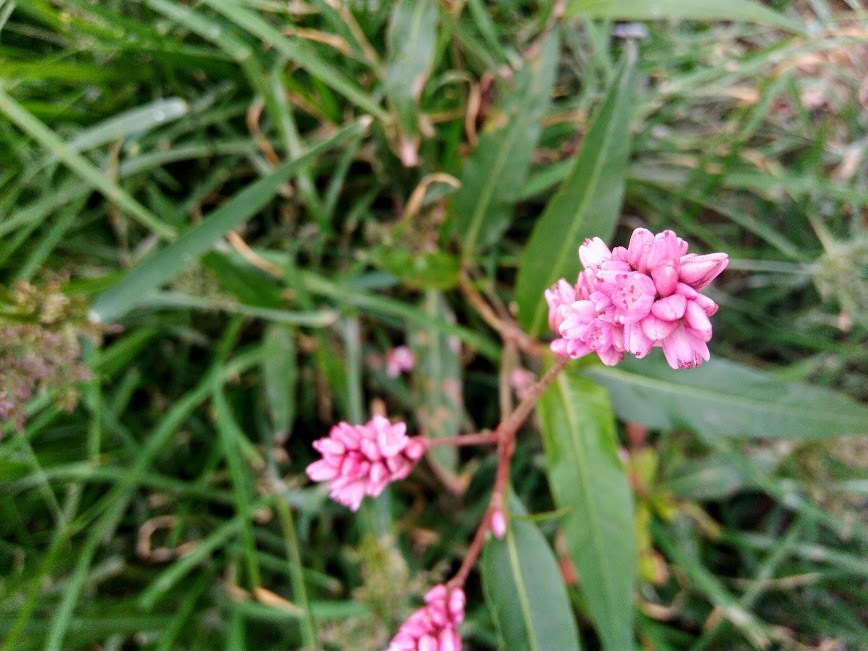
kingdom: Plantae
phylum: Tracheophyta
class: Magnoliopsida
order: Caryophyllales
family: Polygonaceae
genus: Persicaria
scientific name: Persicaria orientalis
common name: Kiss-me-over-the-garden-gate
